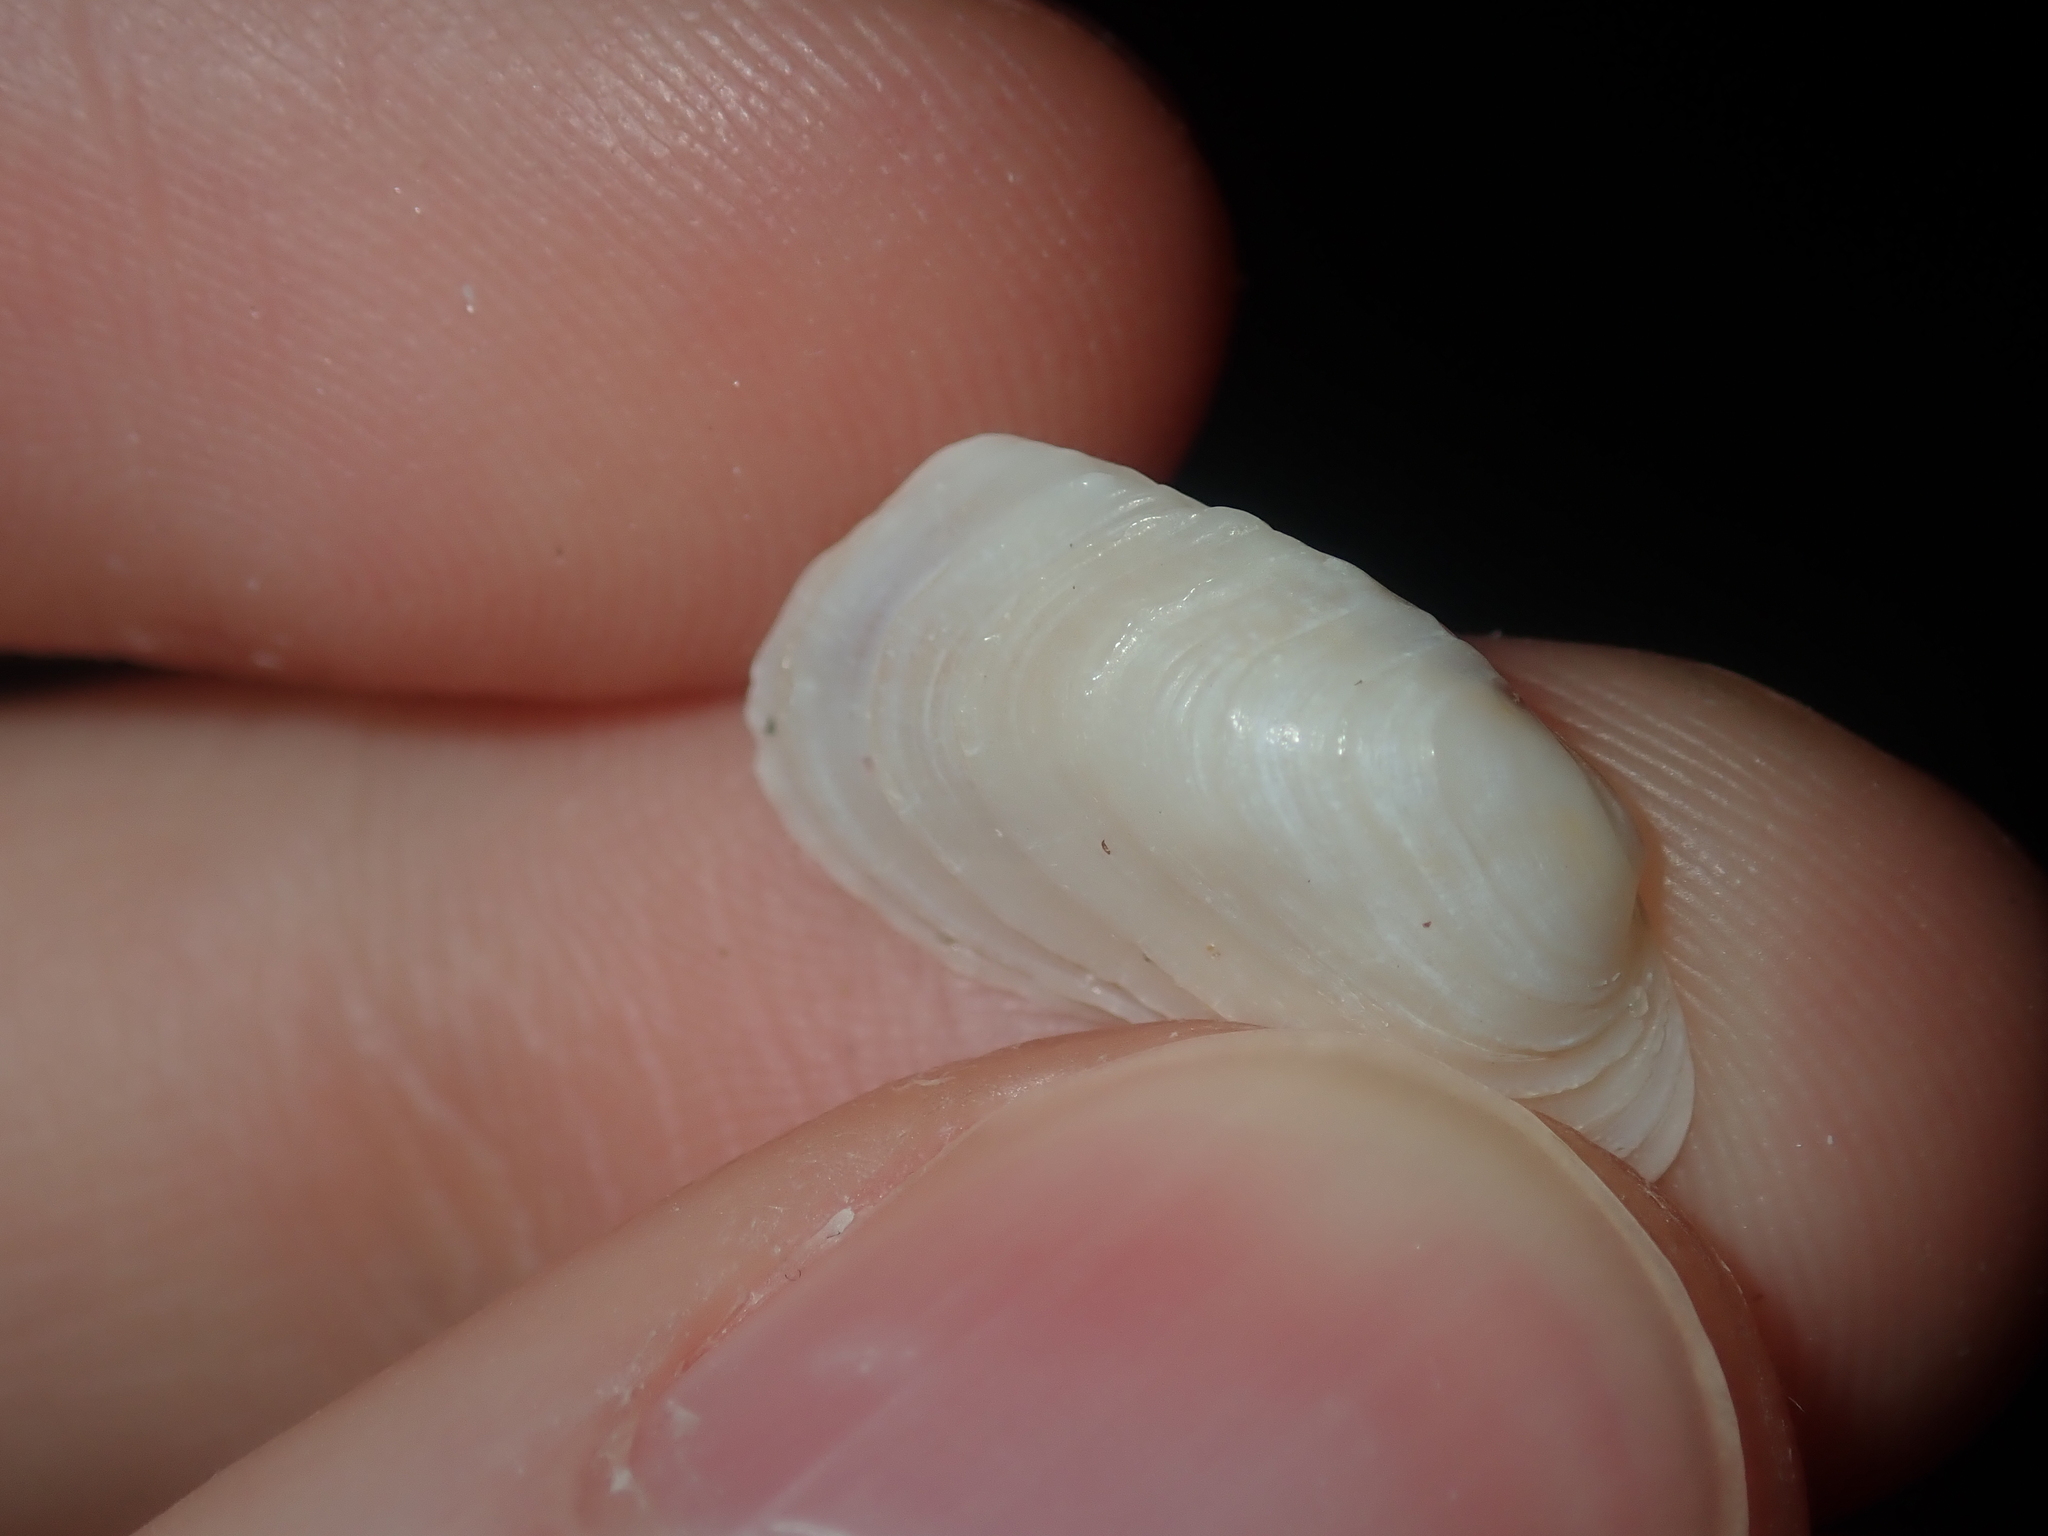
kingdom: Animalia
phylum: Mollusca
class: Bivalvia
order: Venerida
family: Veneridae
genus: Irus
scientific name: Irus irus
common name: Irus clam
